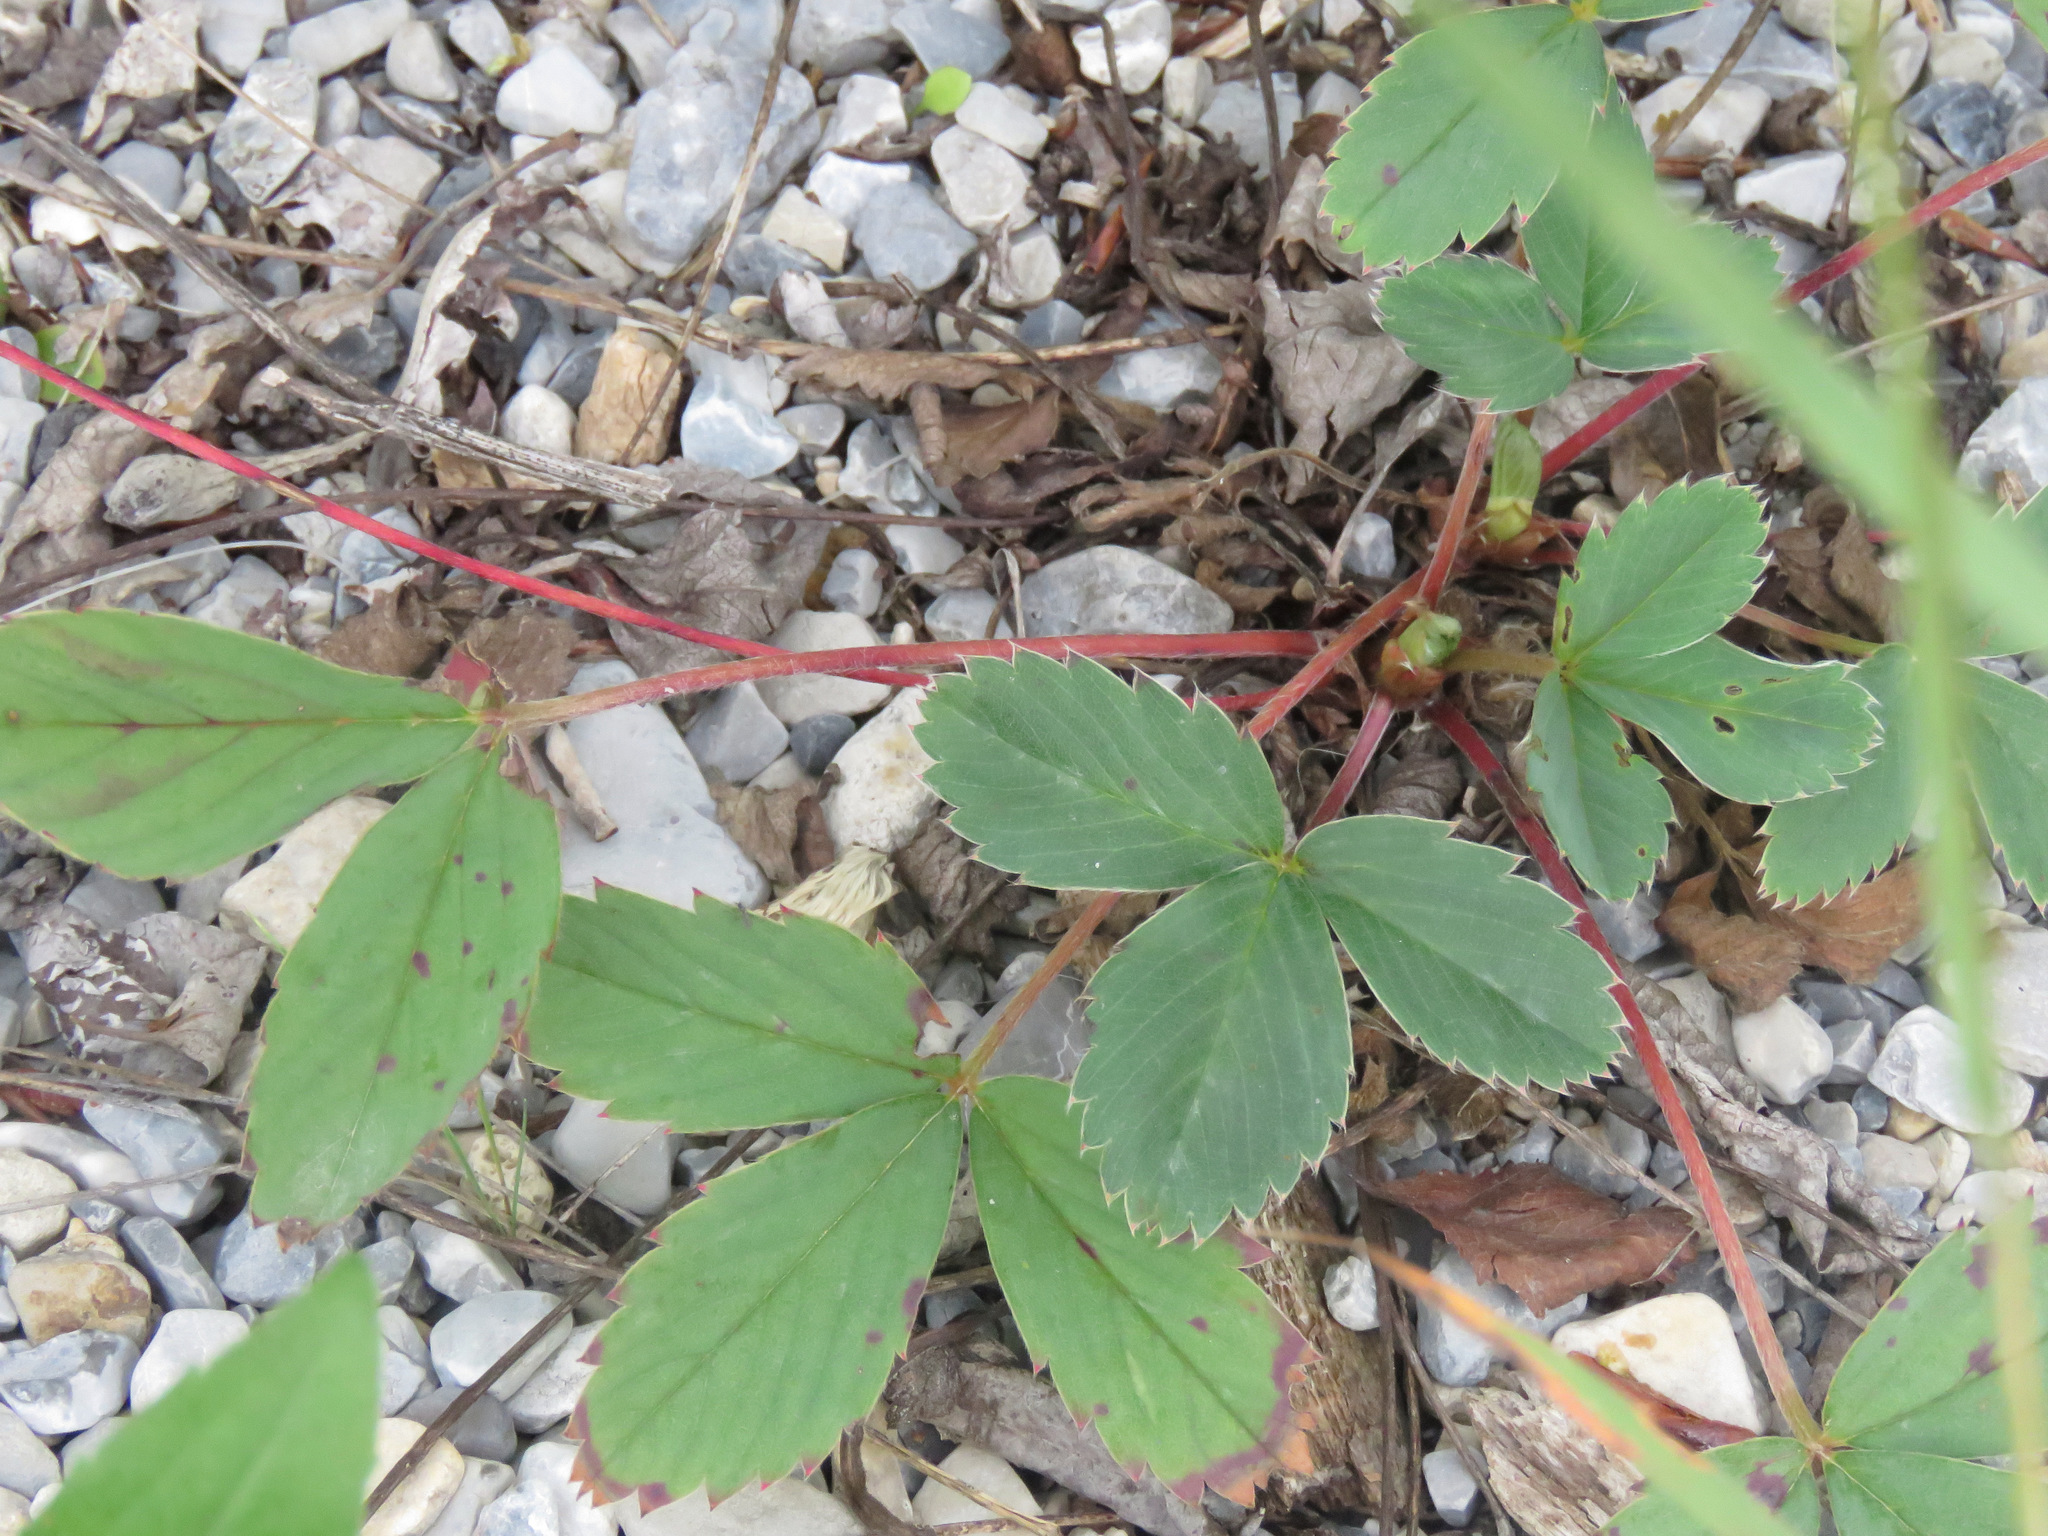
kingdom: Plantae
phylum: Tracheophyta
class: Magnoliopsida
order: Rosales
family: Rosaceae
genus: Fragaria
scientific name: Fragaria virginiana
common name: Thickleaved wild strawberry
